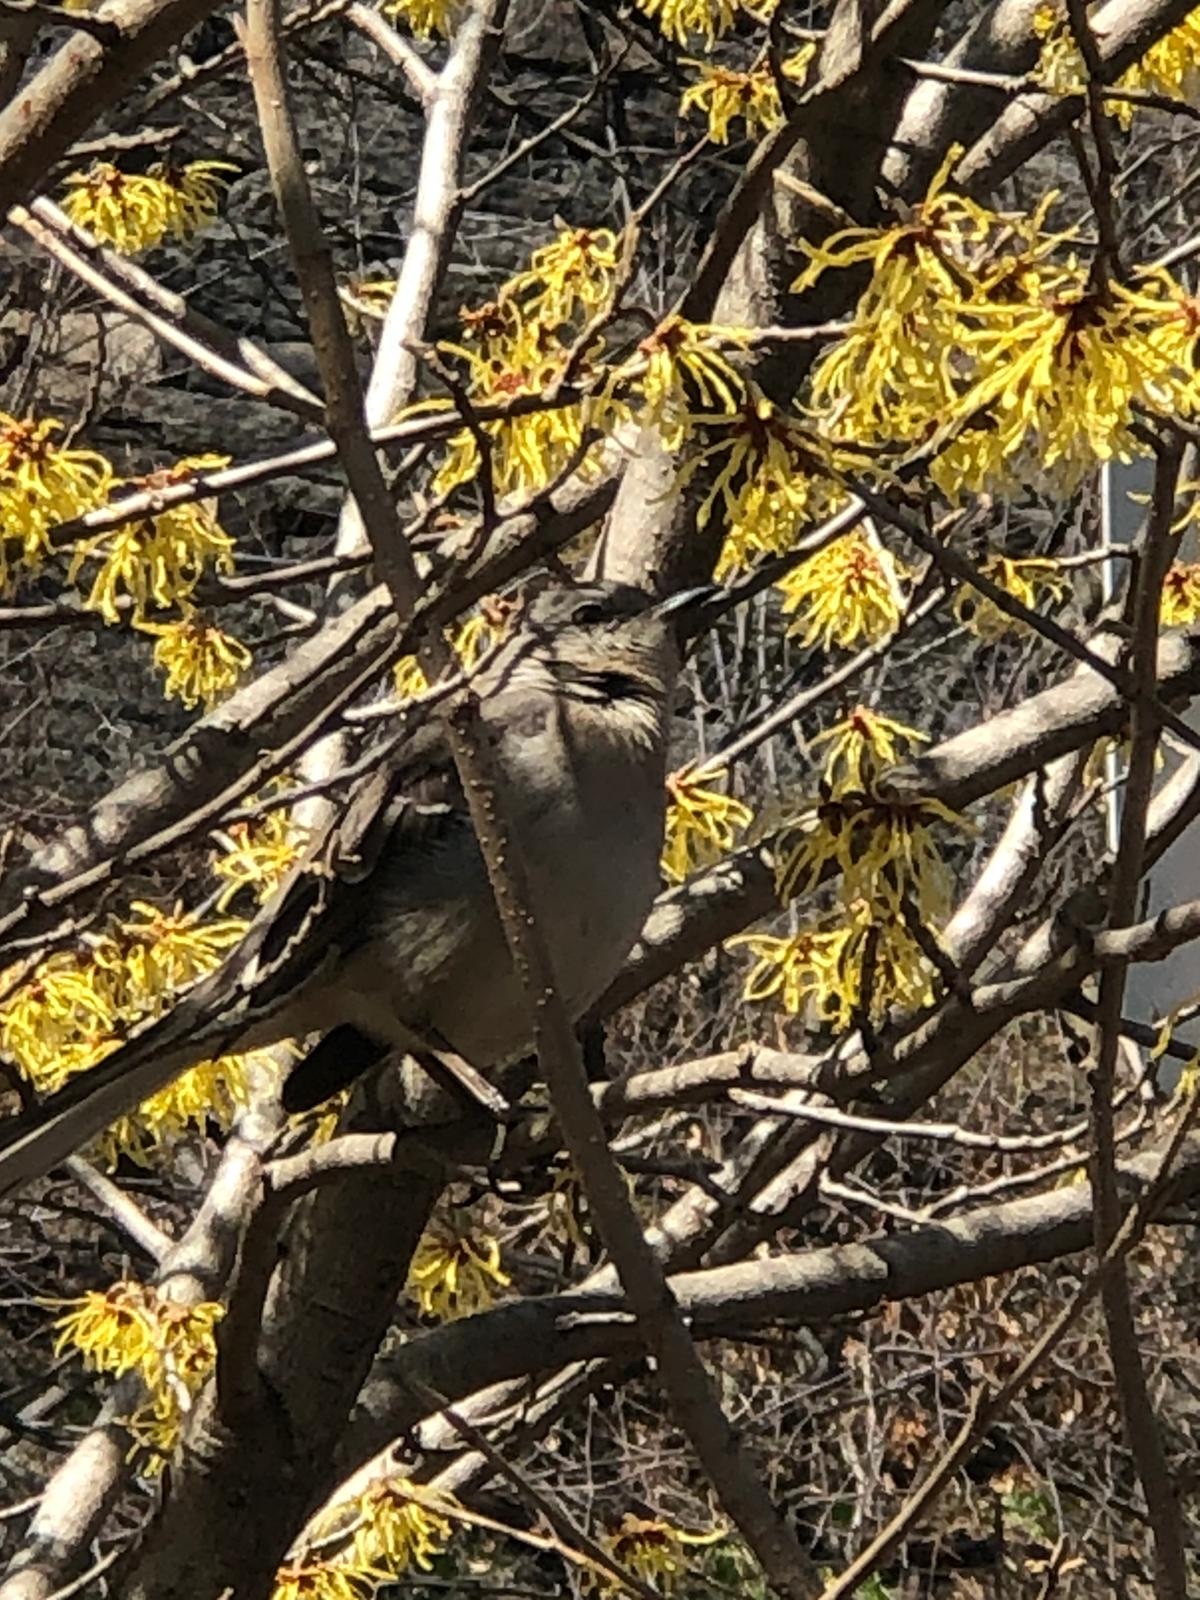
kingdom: Animalia
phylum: Chordata
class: Aves
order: Passeriformes
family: Mimidae
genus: Mimus
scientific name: Mimus polyglottos
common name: Northern mockingbird
